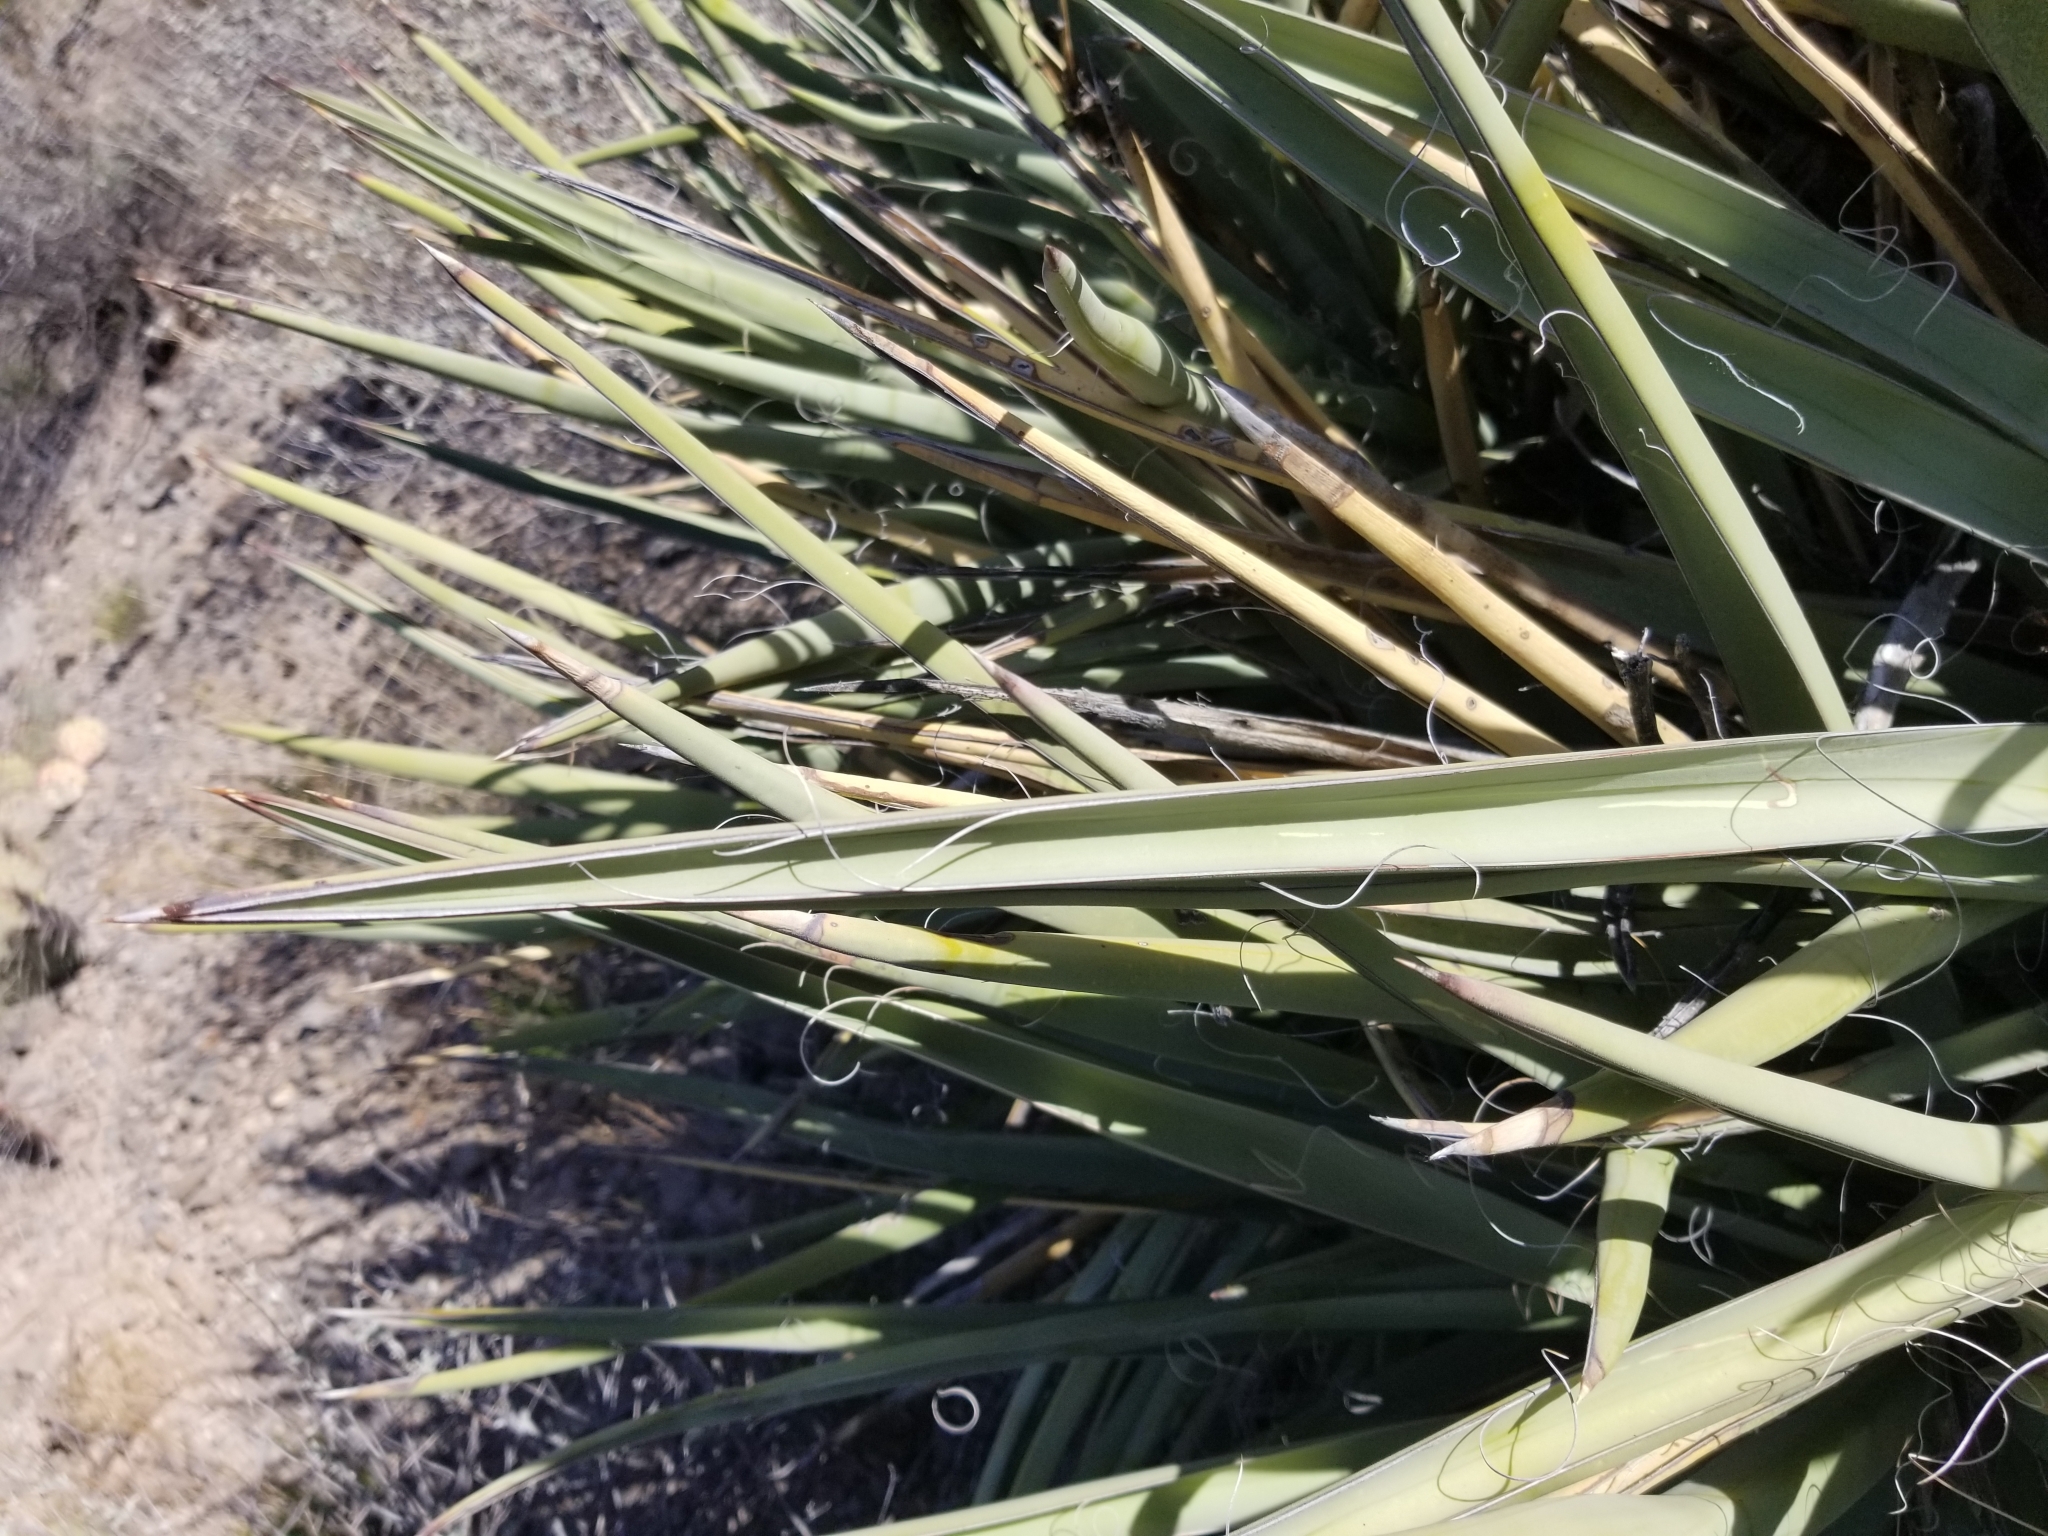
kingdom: Plantae
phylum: Tracheophyta
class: Liliopsida
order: Asparagales
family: Asparagaceae
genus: Yucca
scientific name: Yucca baccata
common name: Banana yucca
